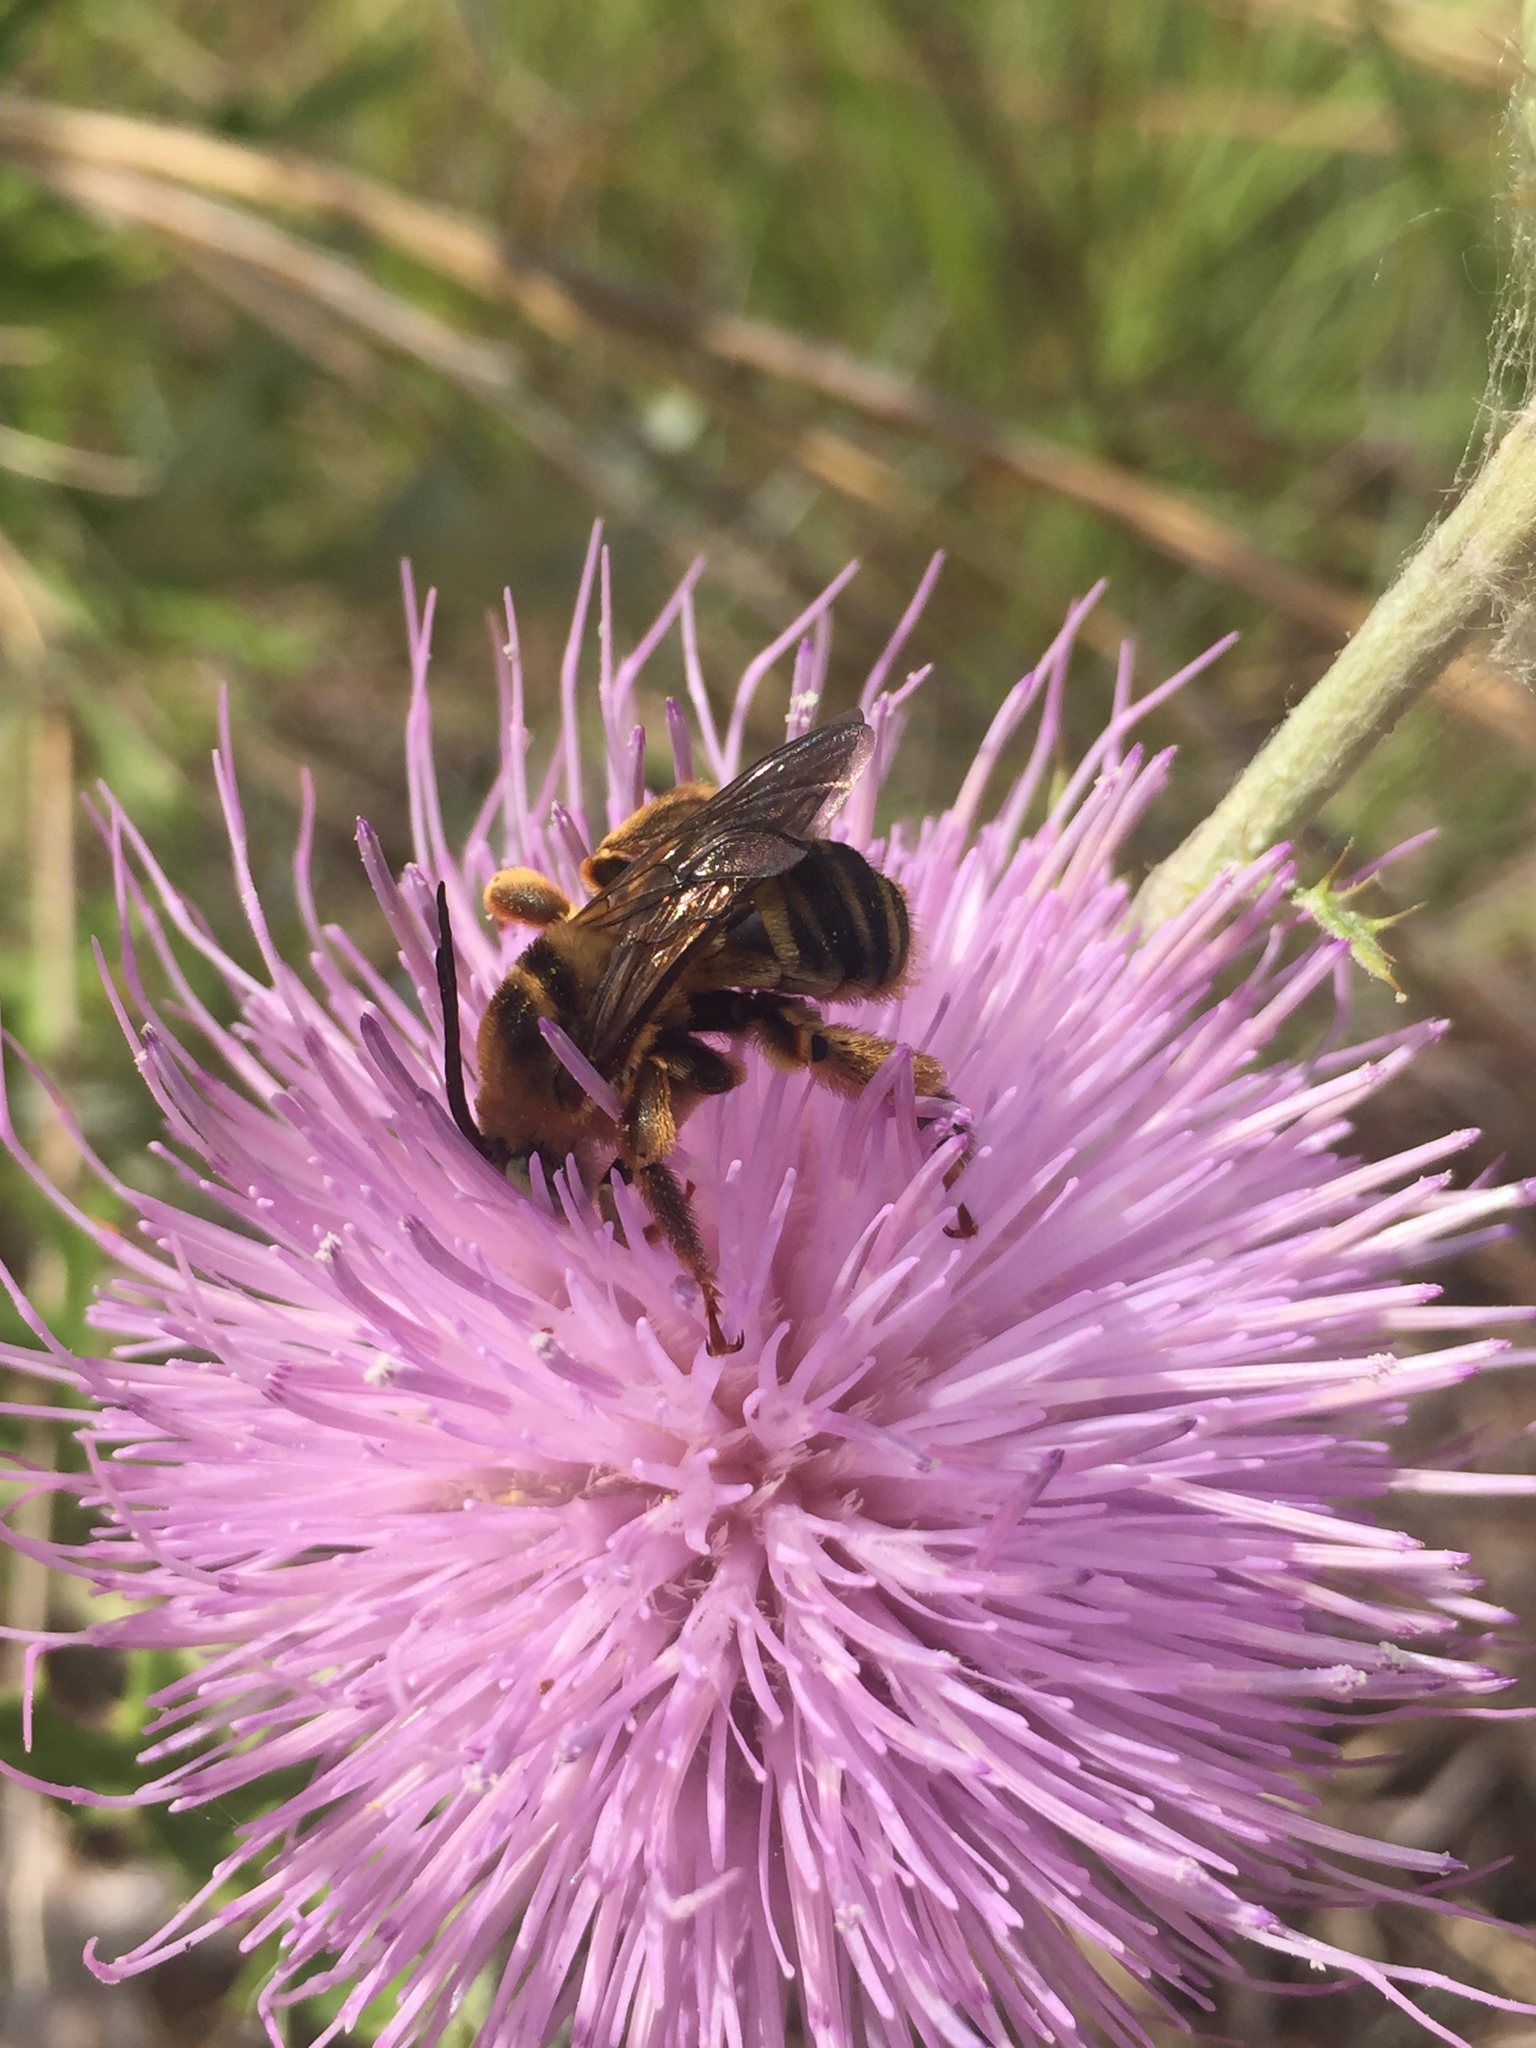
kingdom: Animalia
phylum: Arthropoda
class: Insecta
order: Hymenoptera
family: Apidae
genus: Svastra
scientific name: Svastra obliqua
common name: Oblique longhorn
